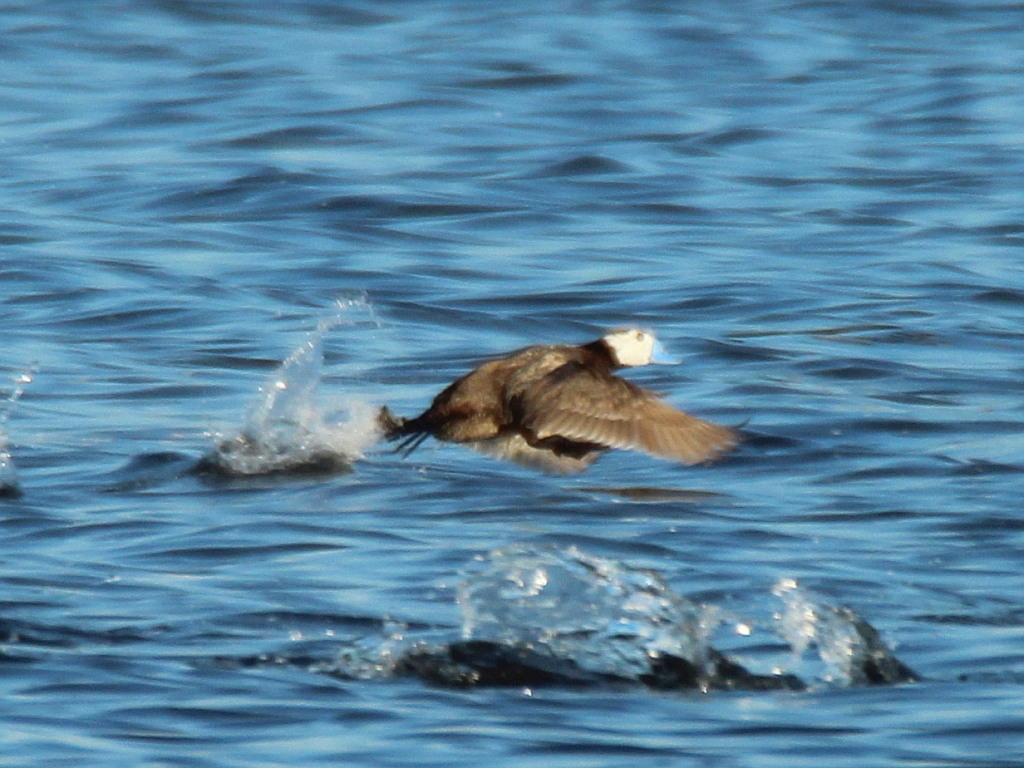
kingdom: Animalia
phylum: Chordata
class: Aves
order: Anseriformes
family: Anatidae
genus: Oxyura
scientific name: Oxyura leucocephala
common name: White-headed duck
